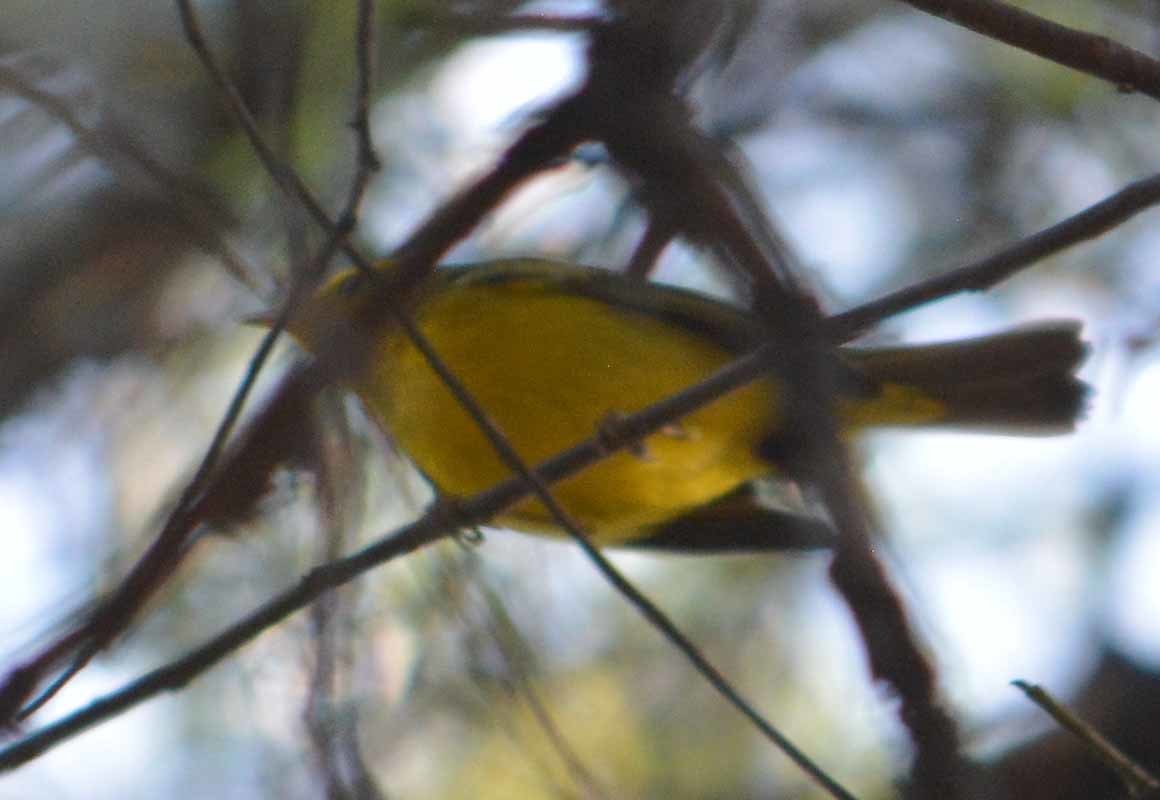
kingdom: Animalia
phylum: Chordata
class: Aves
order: Passeriformes
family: Cardinalidae
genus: Piranga
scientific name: Piranga ludoviciana
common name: Western tanager
